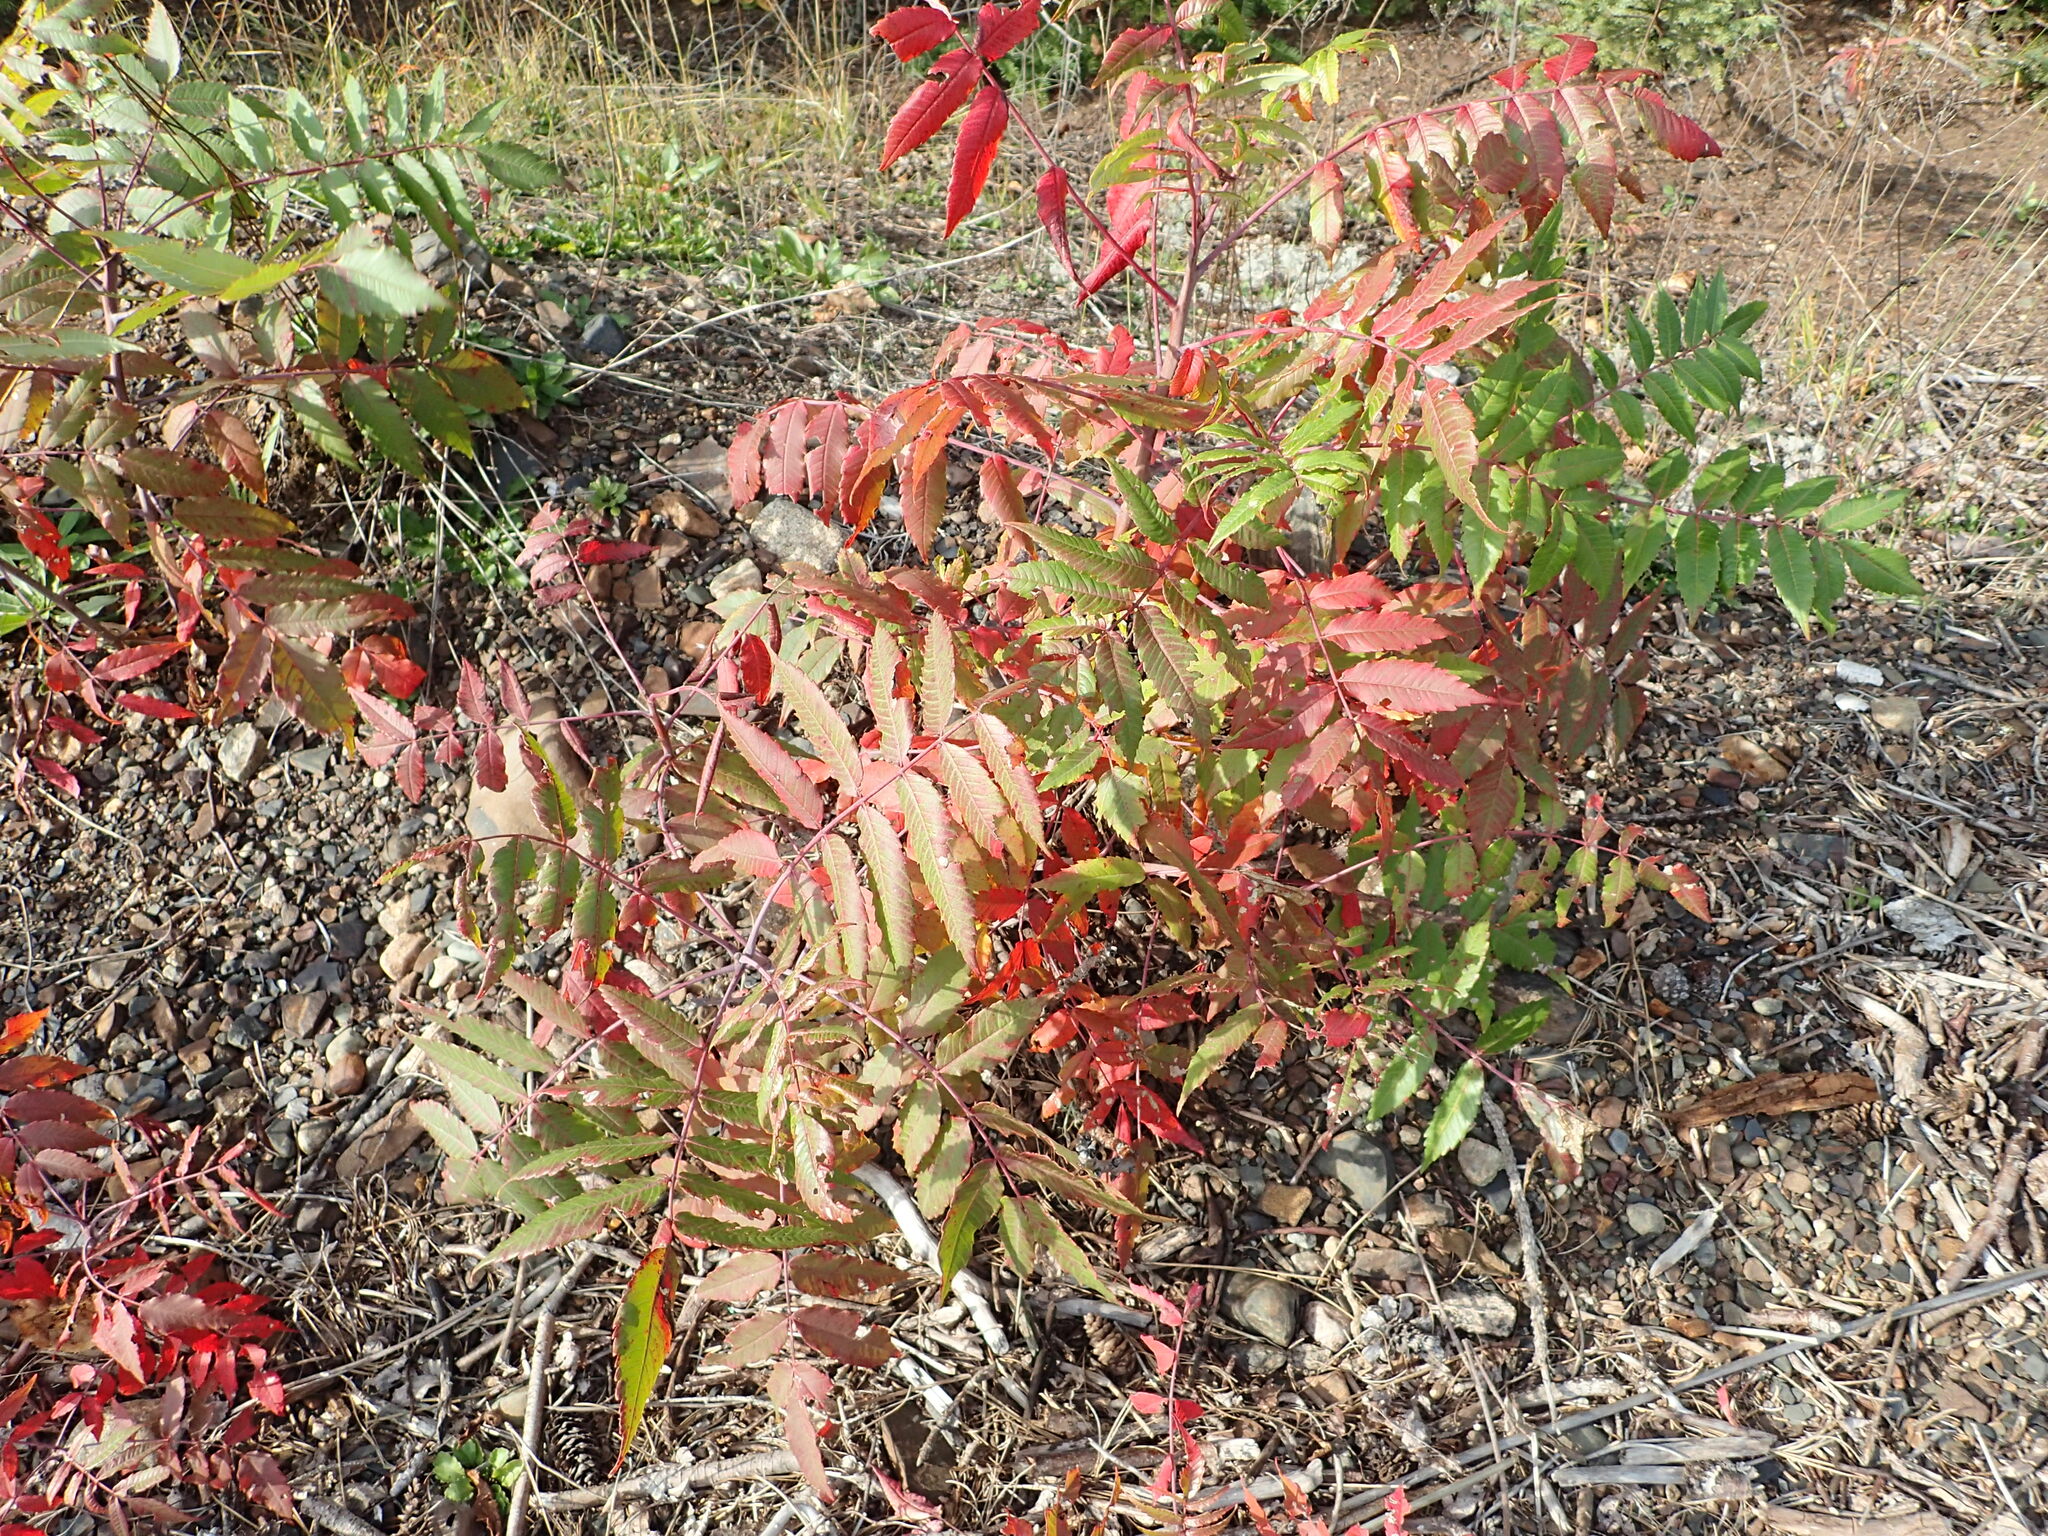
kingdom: Plantae
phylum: Tracheophyta
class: Magnoliopsida
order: Sapindales
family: Anacardiaceae
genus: Rhus
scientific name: Rhus glabra
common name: Scarlet sumac
